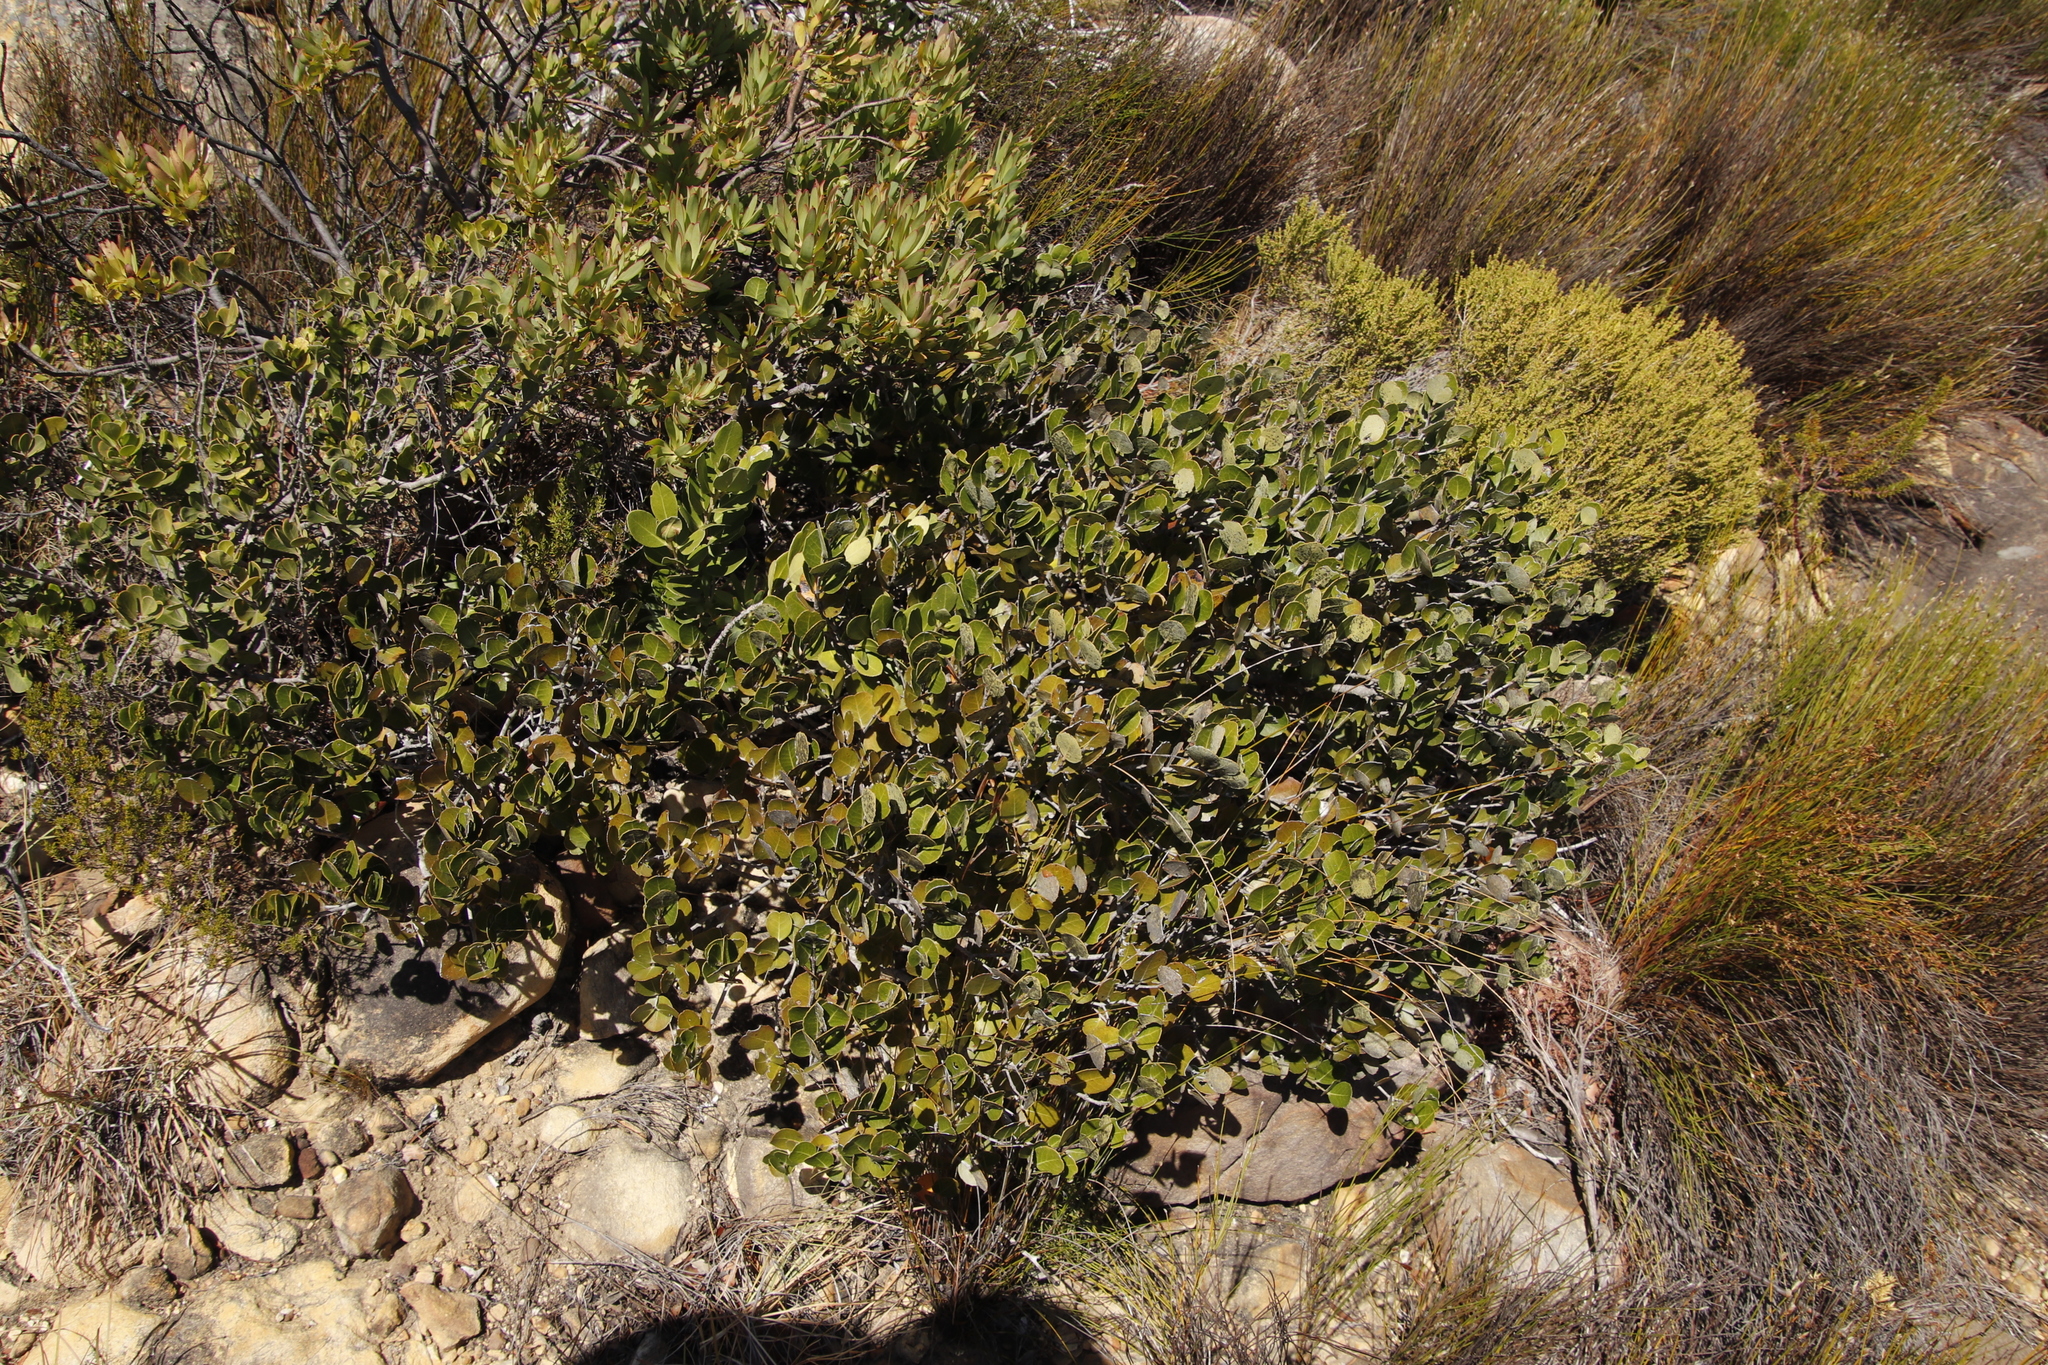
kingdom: Plantae
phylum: Tracheophyta
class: Magnoliopsida
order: Celastrales
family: Celastraceae
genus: Cassine
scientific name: Cassine peragua
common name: Cape saffron
